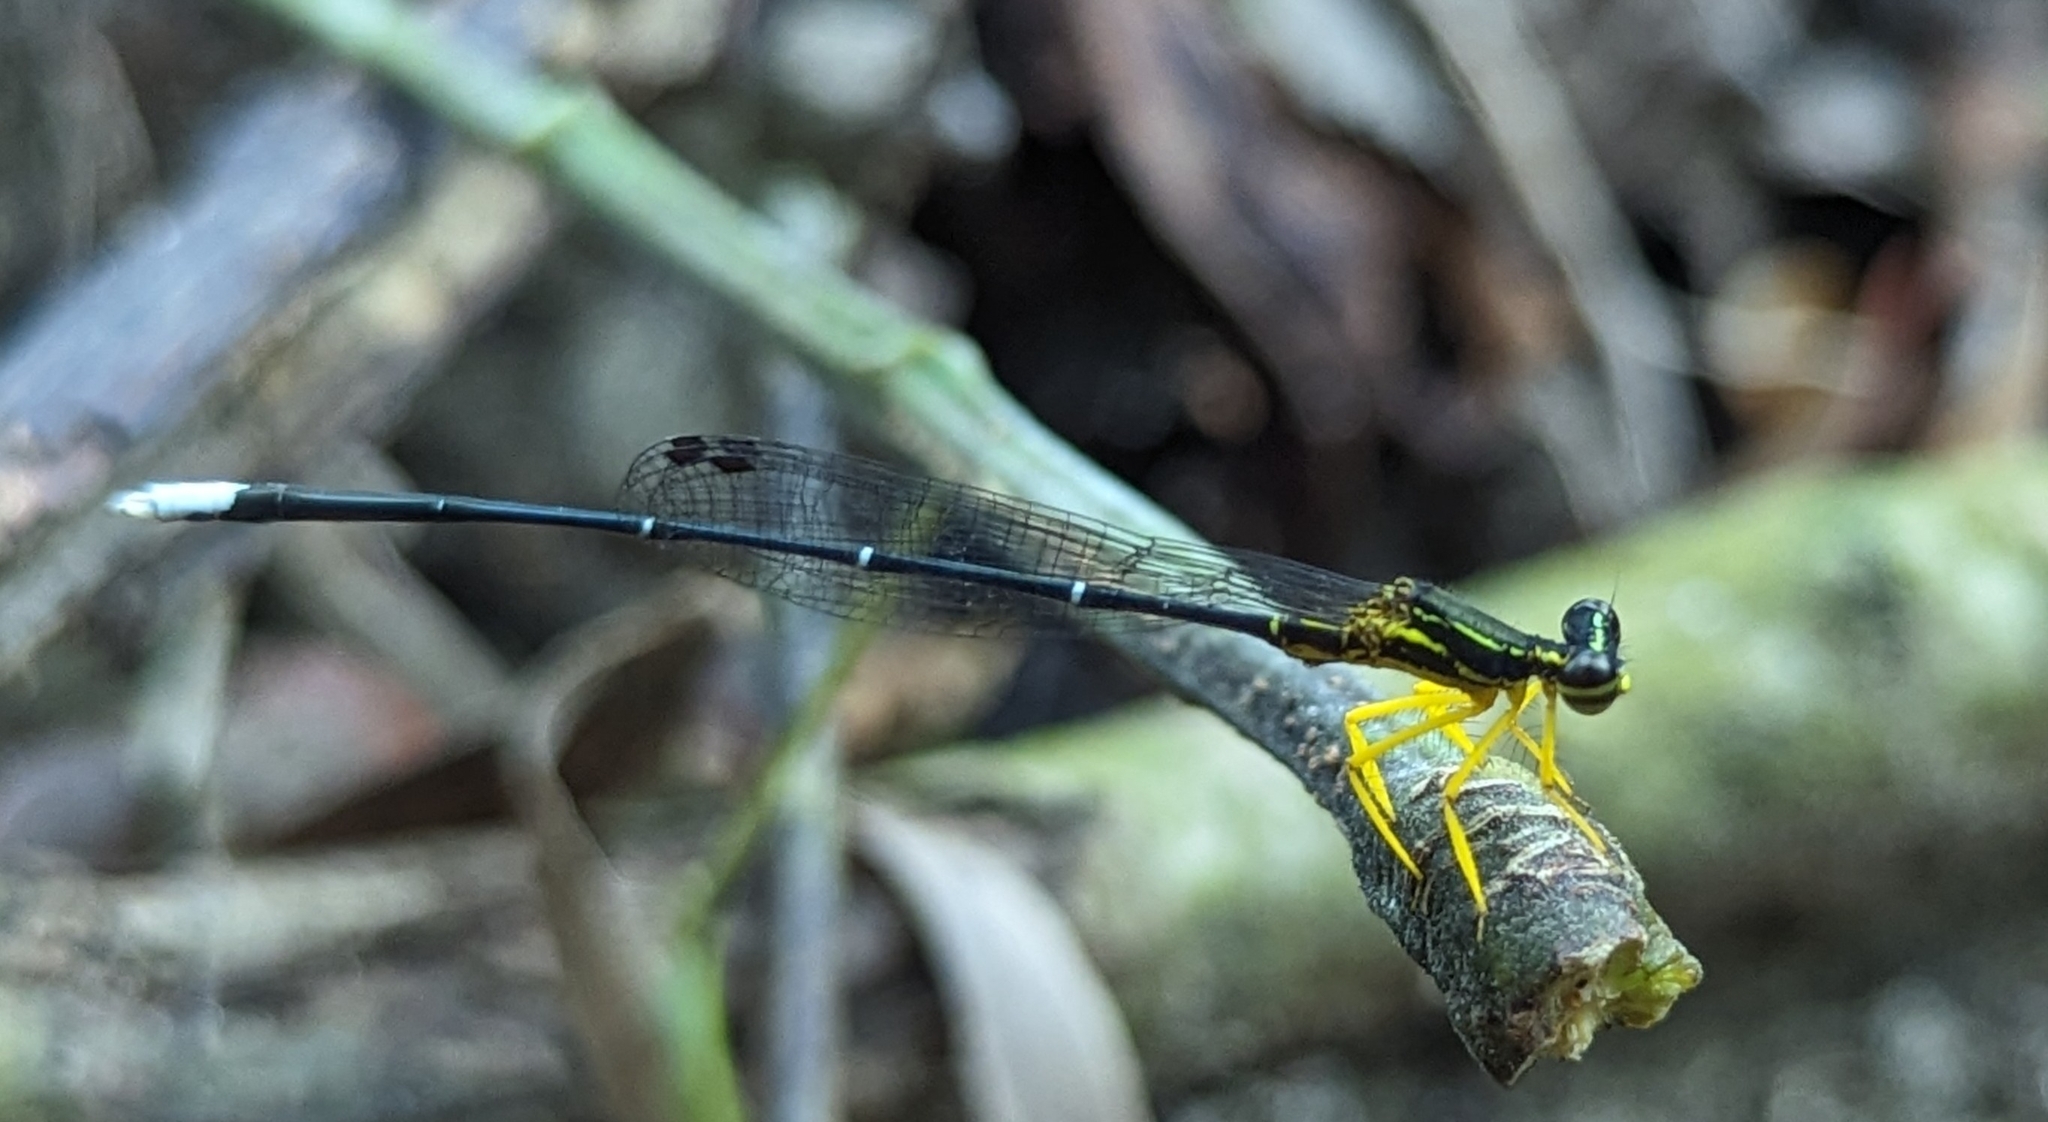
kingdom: Animalia
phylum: Arthropoda
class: Insecta
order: Odonata
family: Platycnemididae
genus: Copera
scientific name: Copera marginipes
